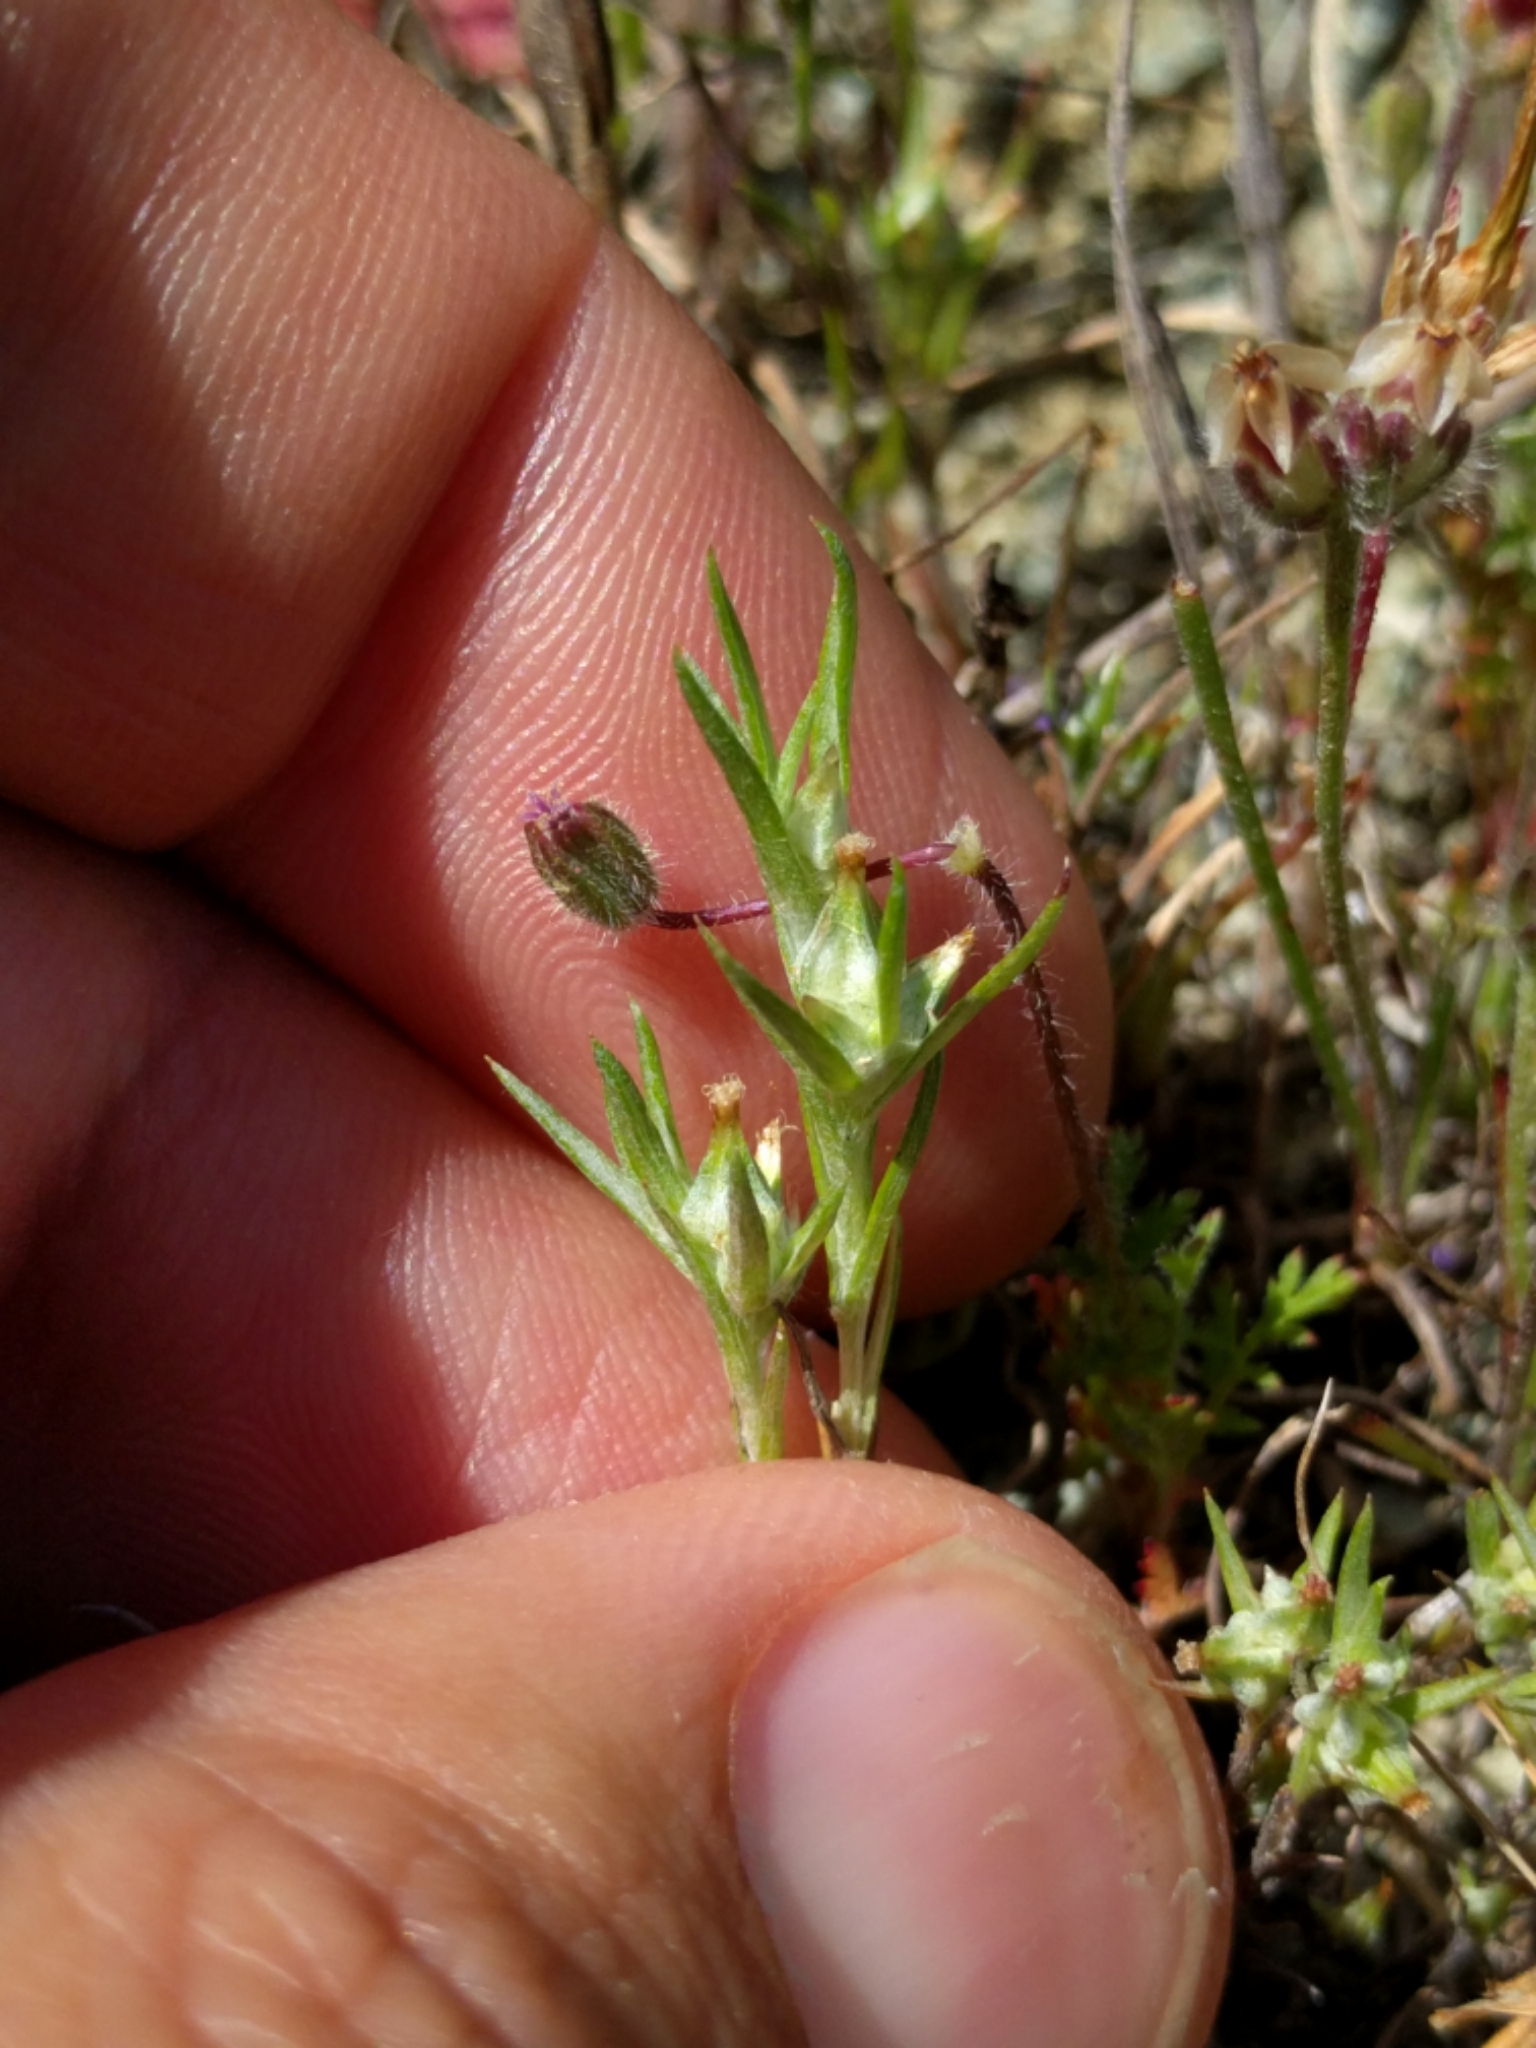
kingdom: Plantae
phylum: Tracheophyta
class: Magnoliopsida
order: Asterales
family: Asteraceae
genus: Logfia
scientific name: Logfia gallica
